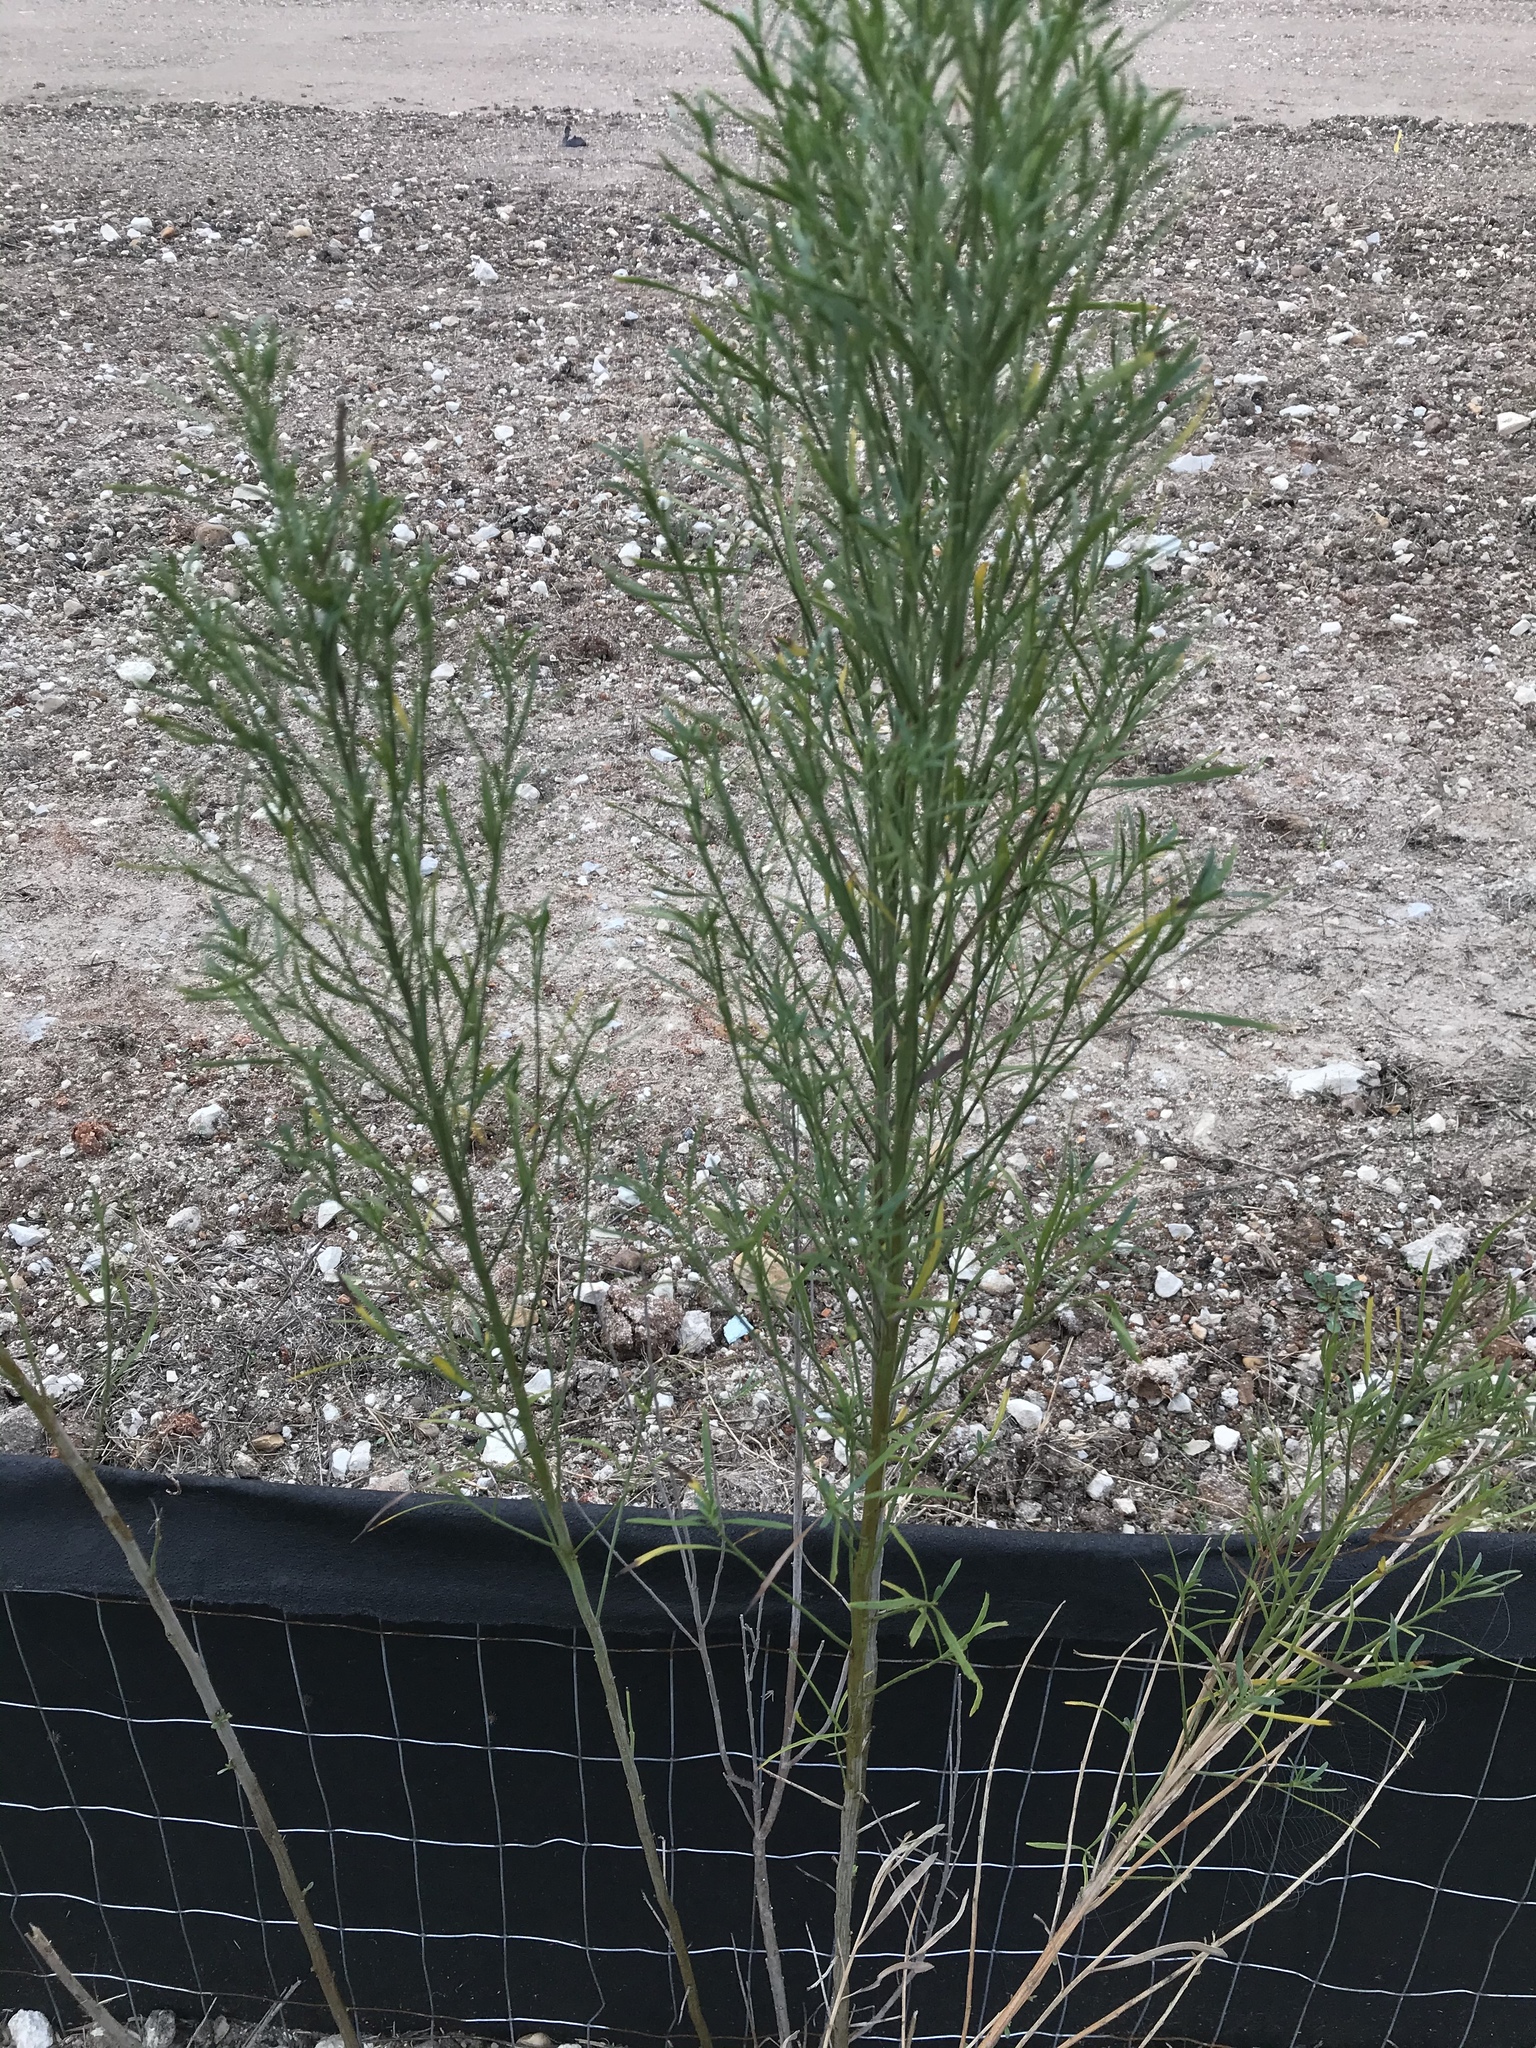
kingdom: Plantae
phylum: Tracheophyta
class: Magnoliopsida
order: Asterales
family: Asteraceae
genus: Baccharis
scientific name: Baccharis neglecta
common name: Roosevelt-weed
